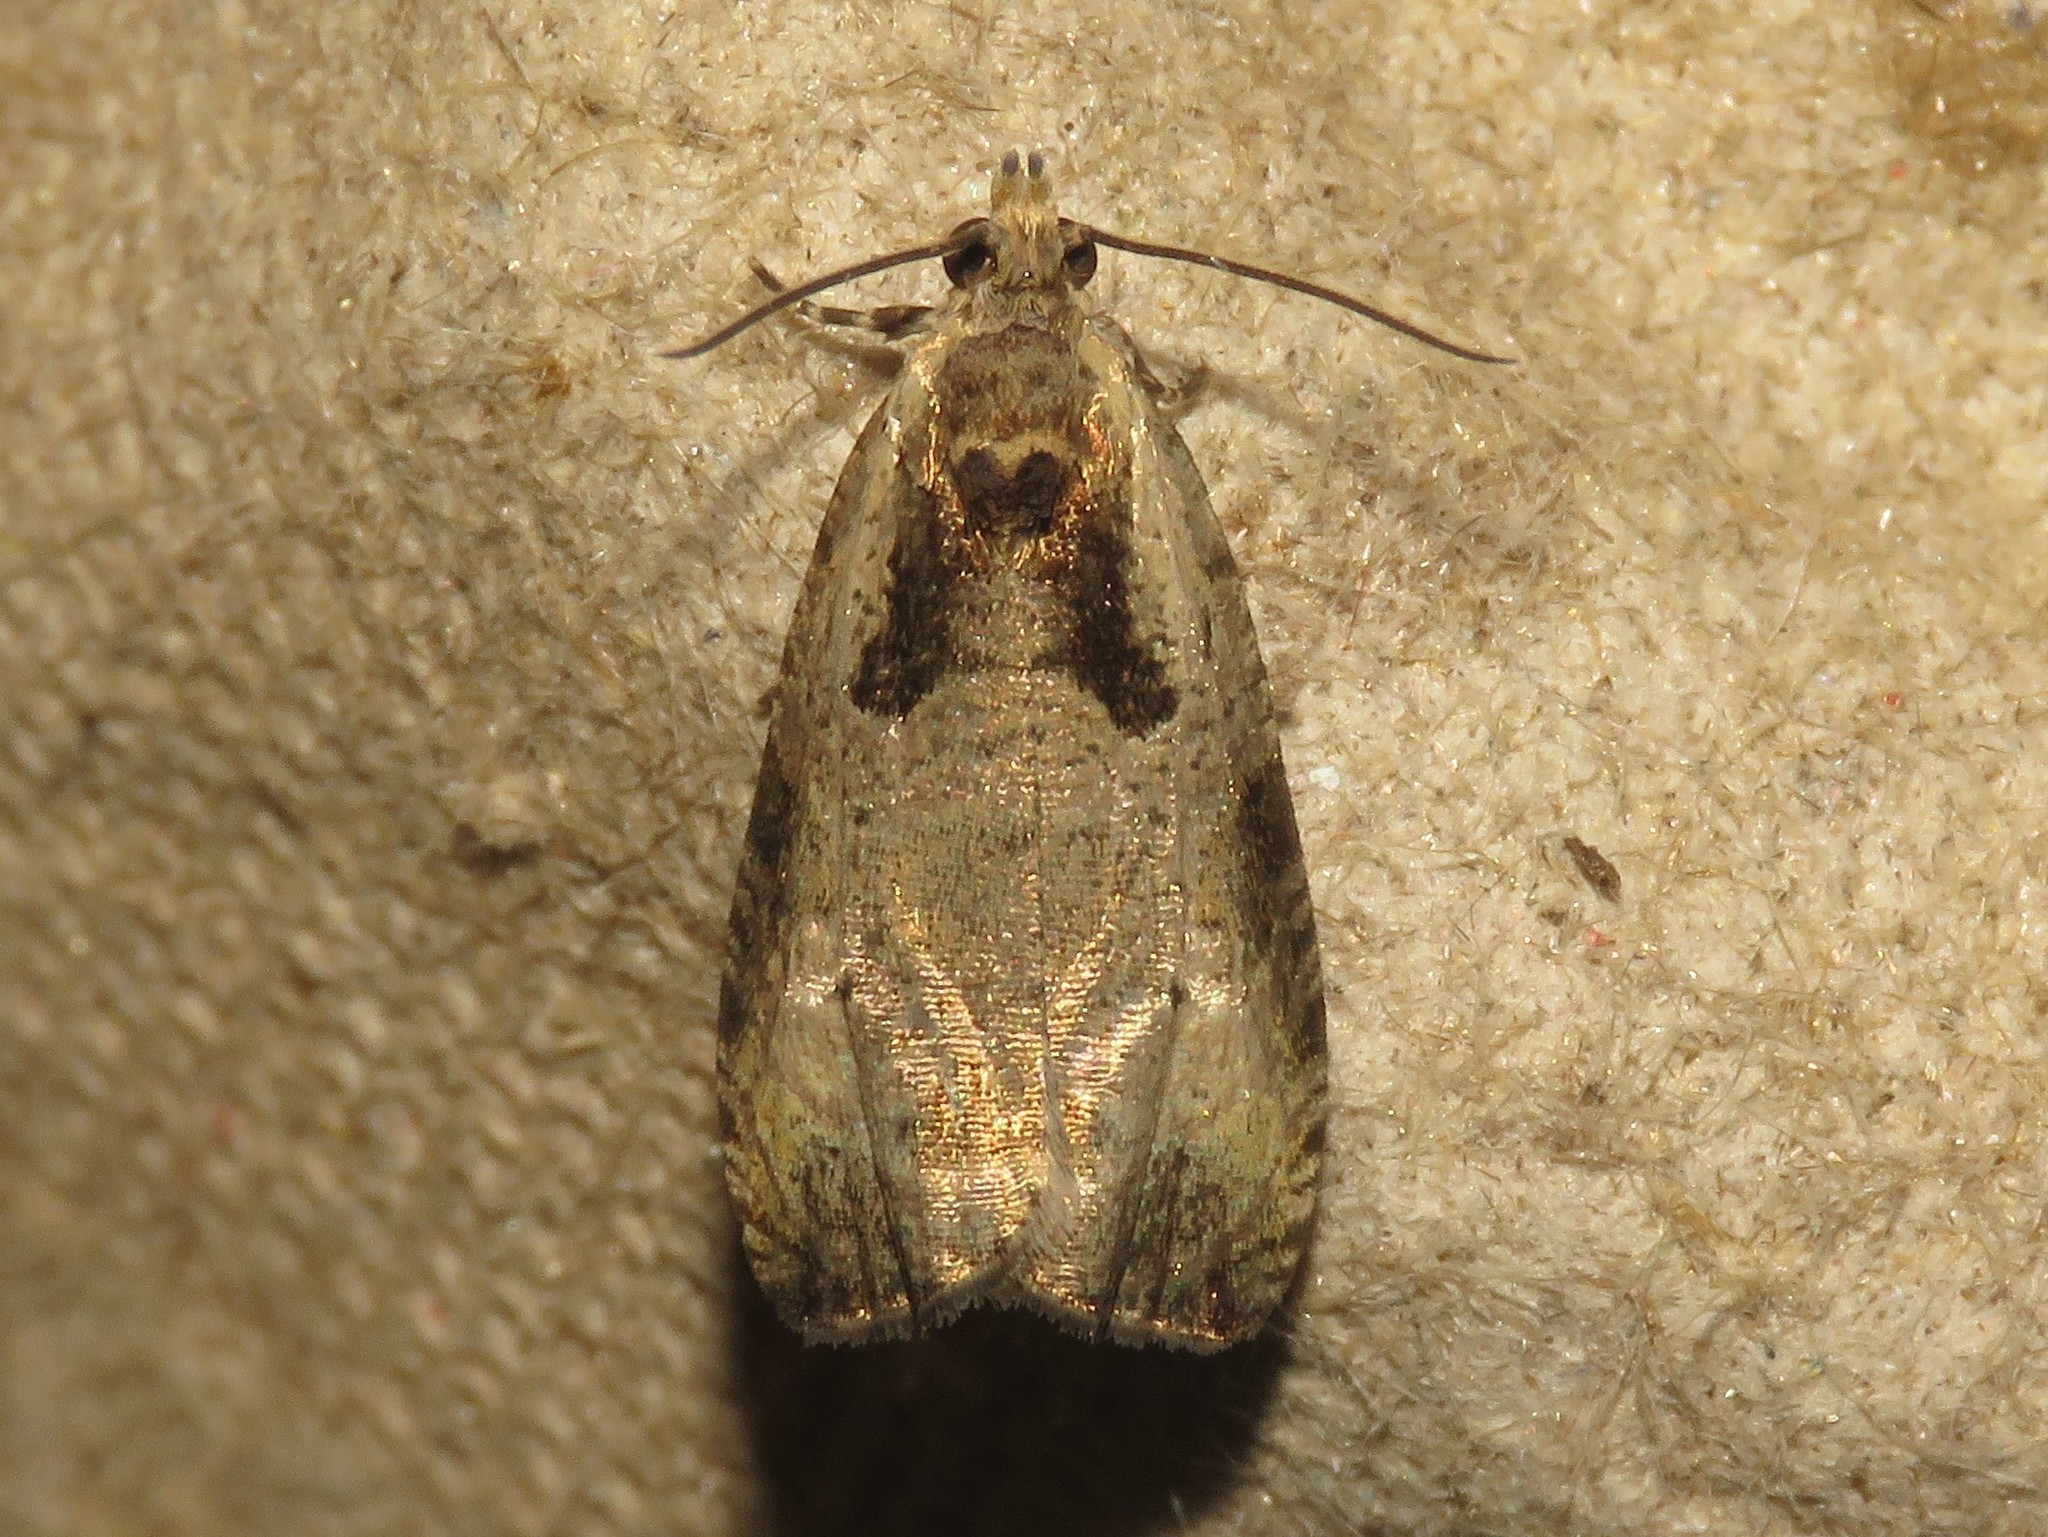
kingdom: Animalia
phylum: Arthropoda
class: Insecta
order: Lepidoptera
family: Tortricidae
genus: Olethreutes
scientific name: Olethreutes punctanum
